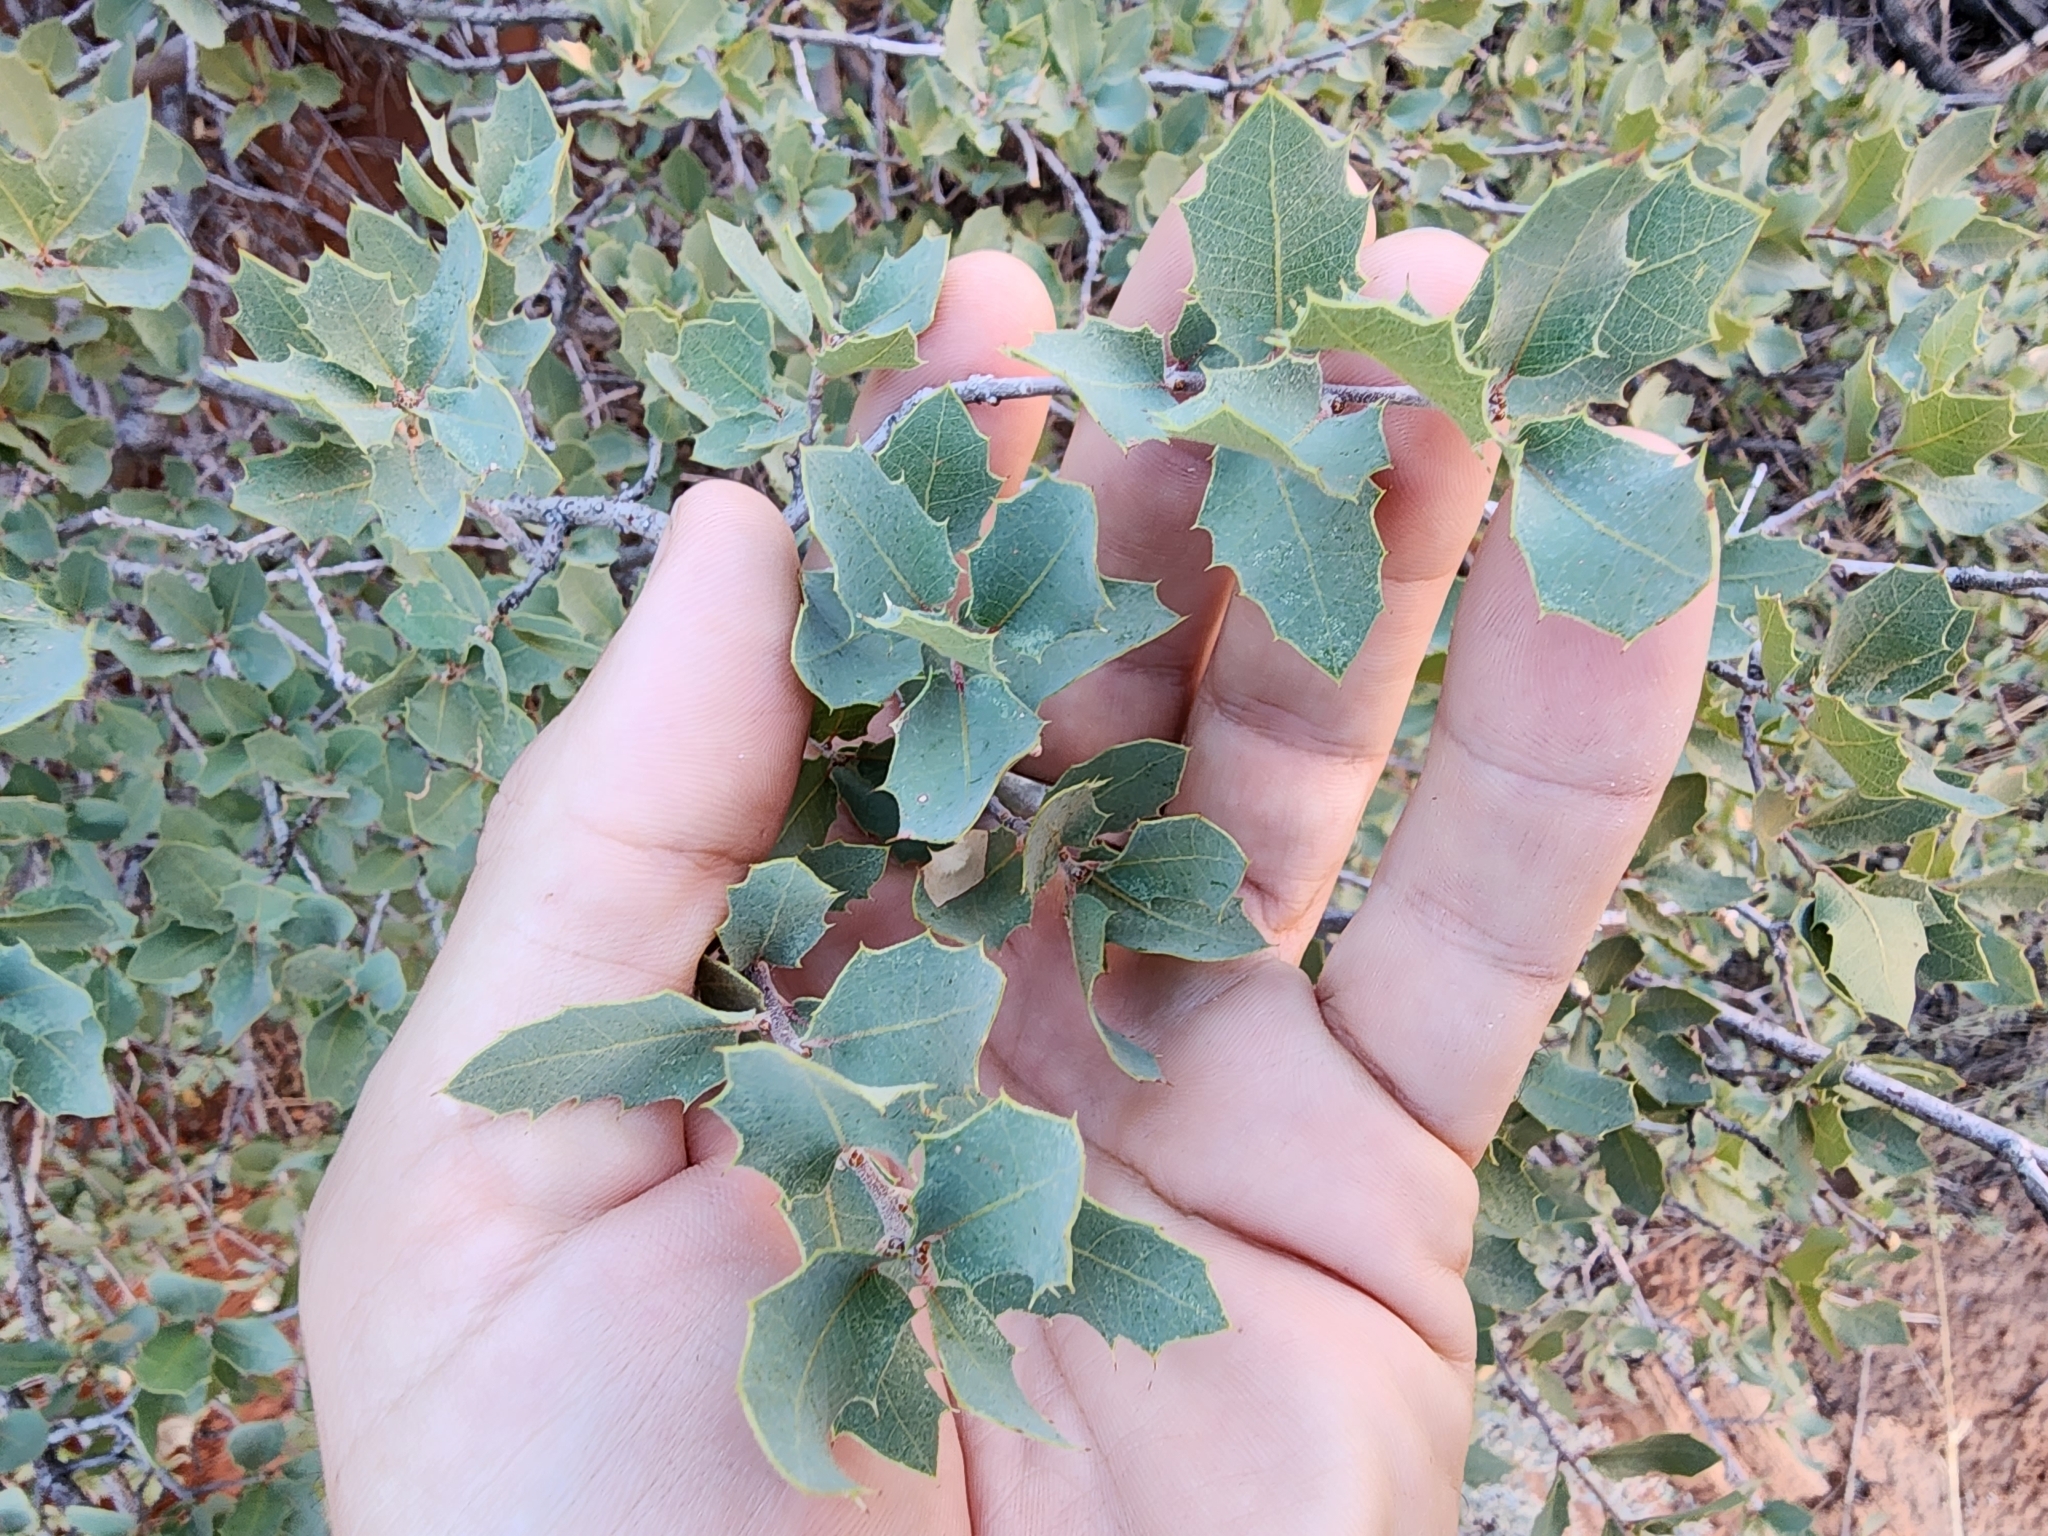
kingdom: Plantae
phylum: Tracheophyta
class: Magnoliopsida
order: Fagales
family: Fagaceae
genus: Quercus
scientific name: Quercus turbinella
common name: Sonoran scrub oak
